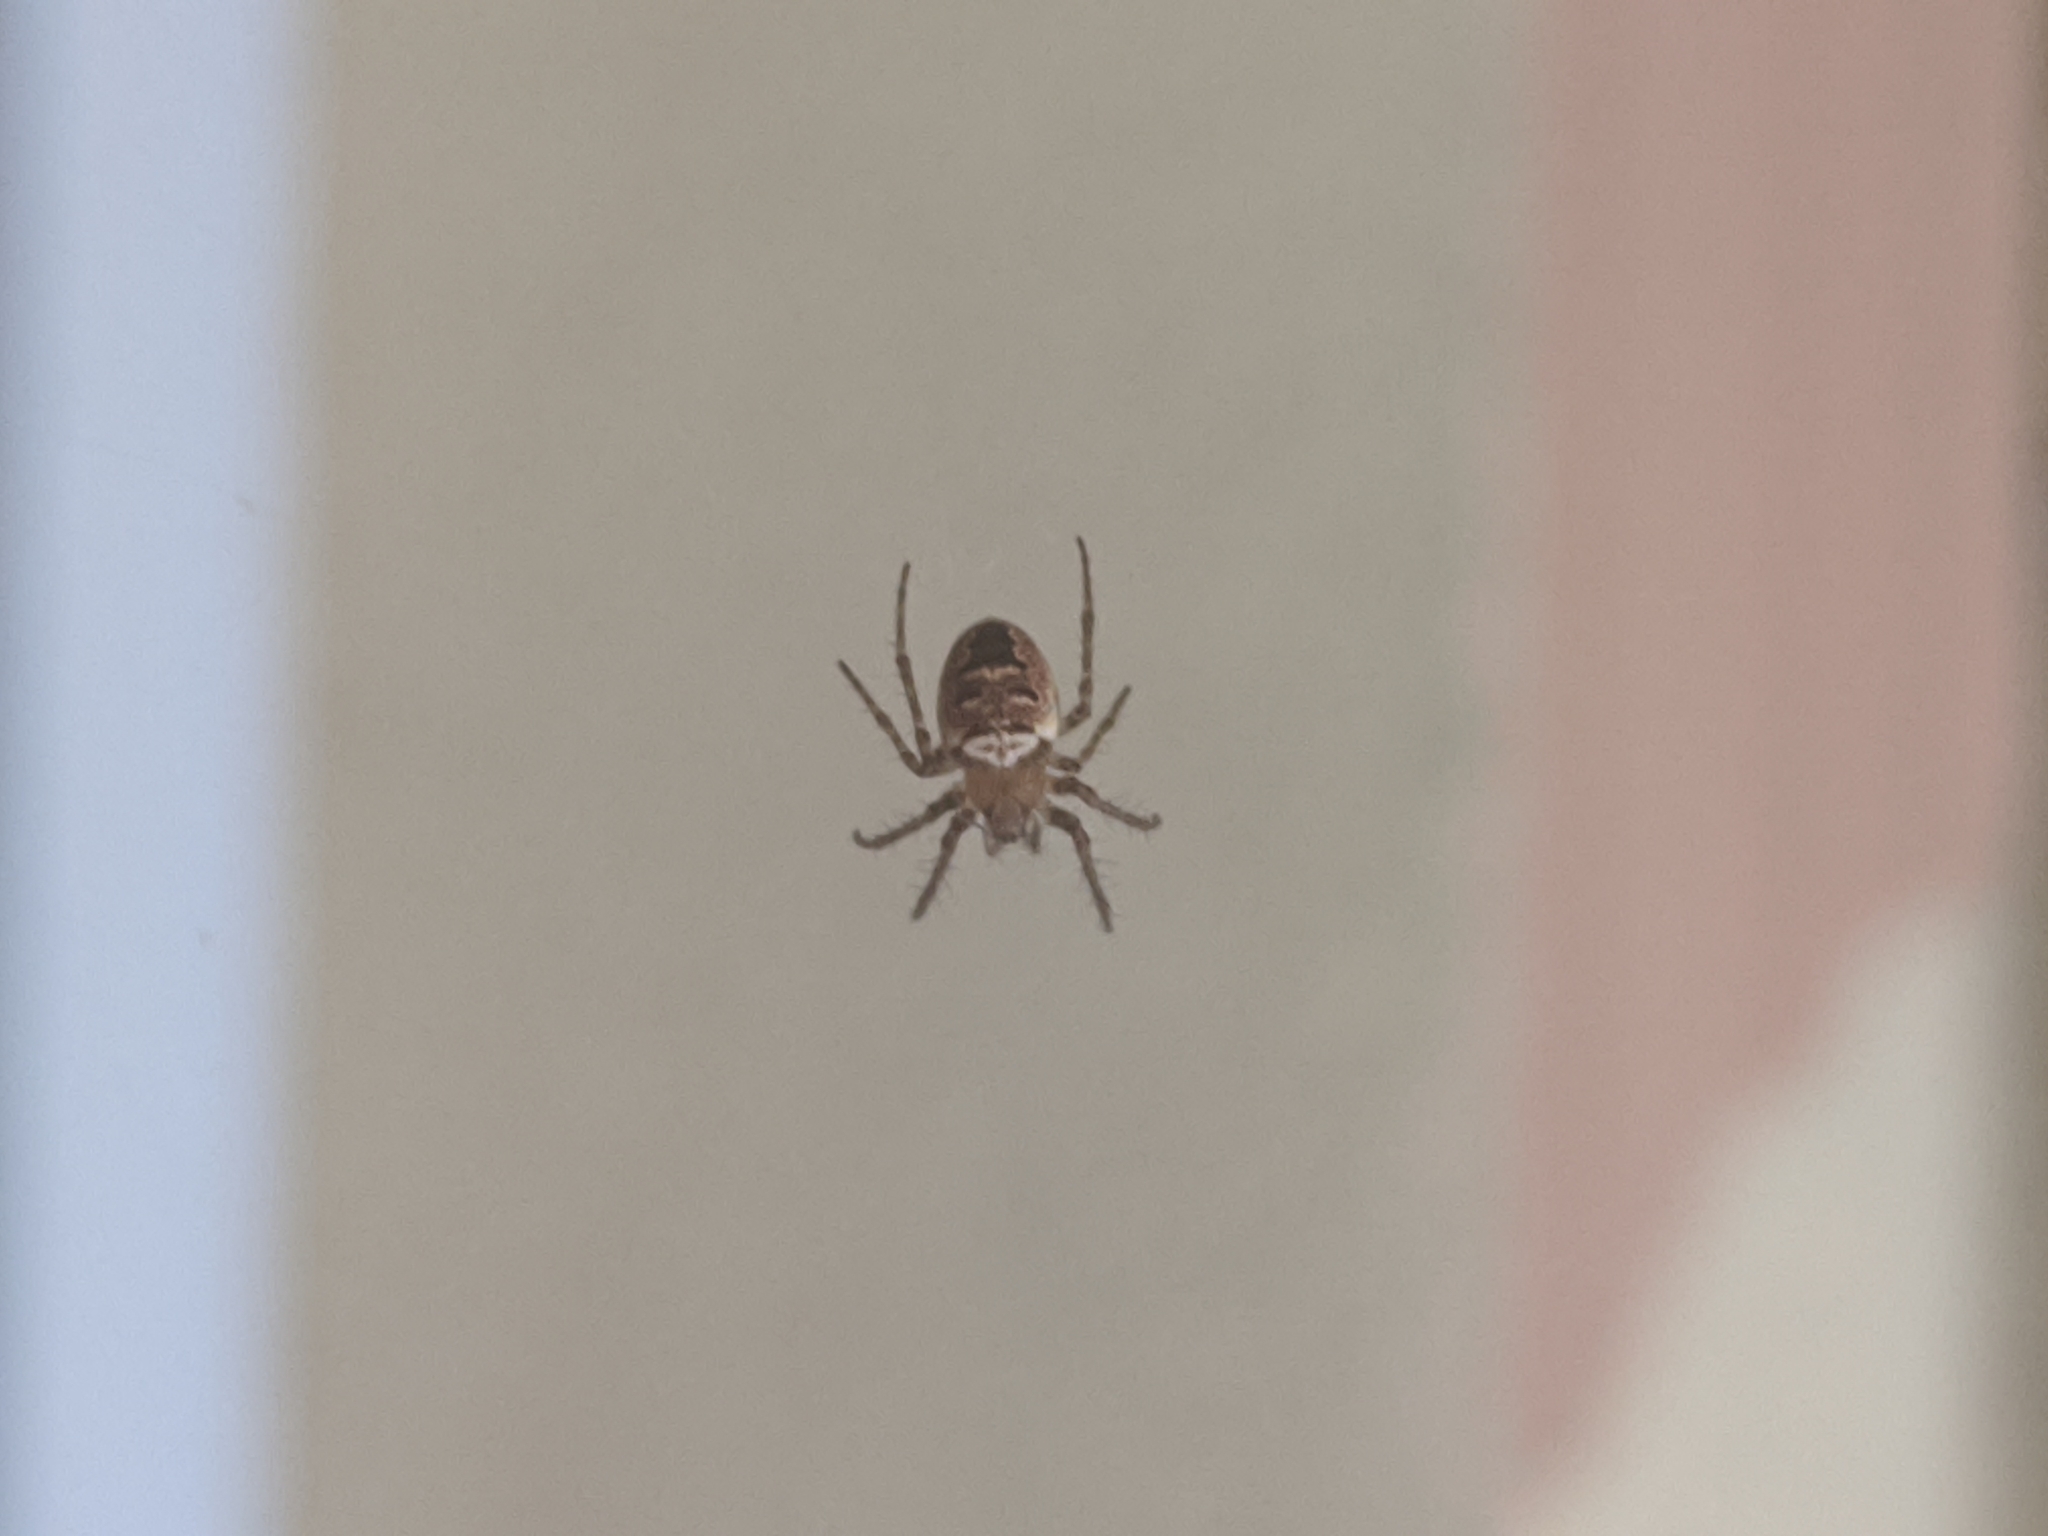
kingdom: Animalia
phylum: Arthropoda
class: Arachnida
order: Araneae
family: Araneidae
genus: Zilla
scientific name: Zilla diodia
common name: Zilla diodia
